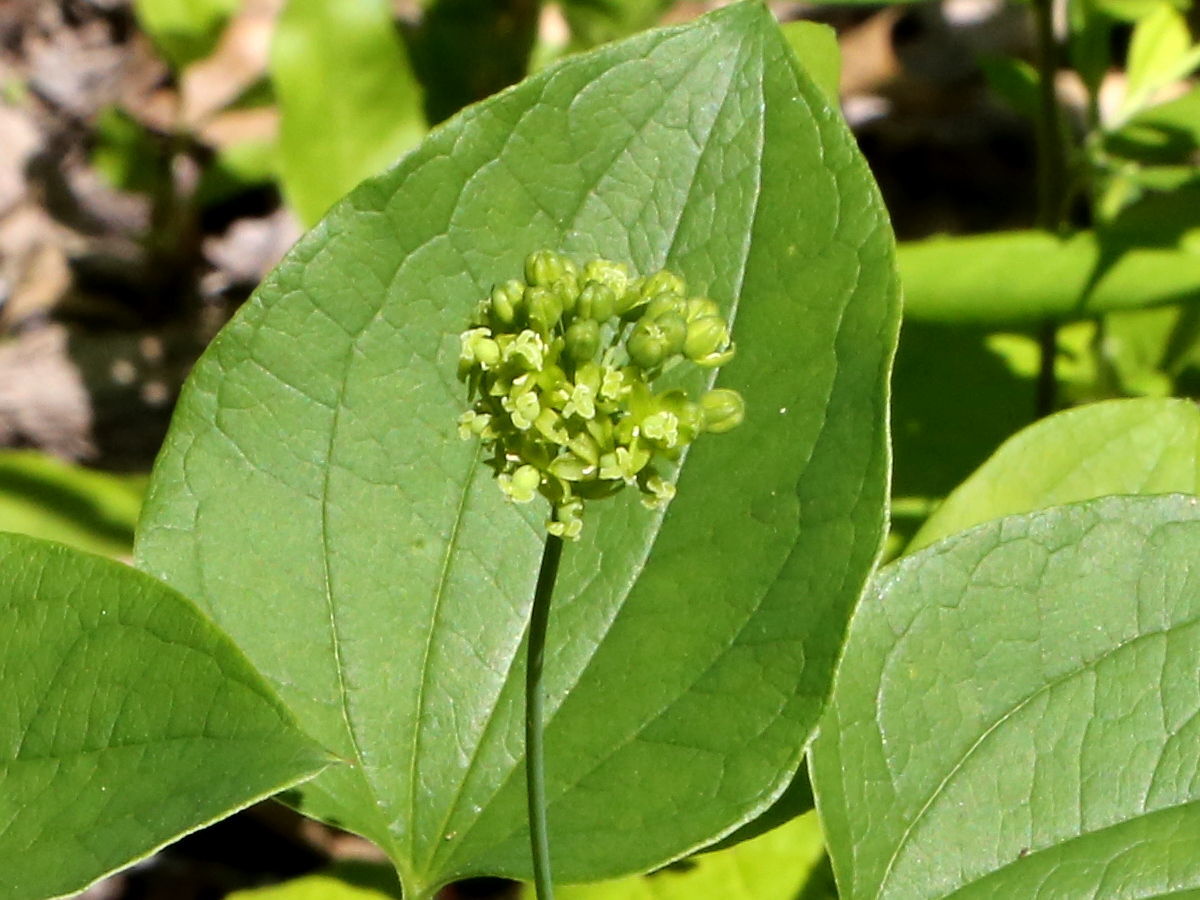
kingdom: Plantae
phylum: Tracheophyta
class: Liliopsida
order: Liliales
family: Smilacaceae
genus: Smilax
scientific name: Smilax lasioneura
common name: Blue ridge carrionflower
